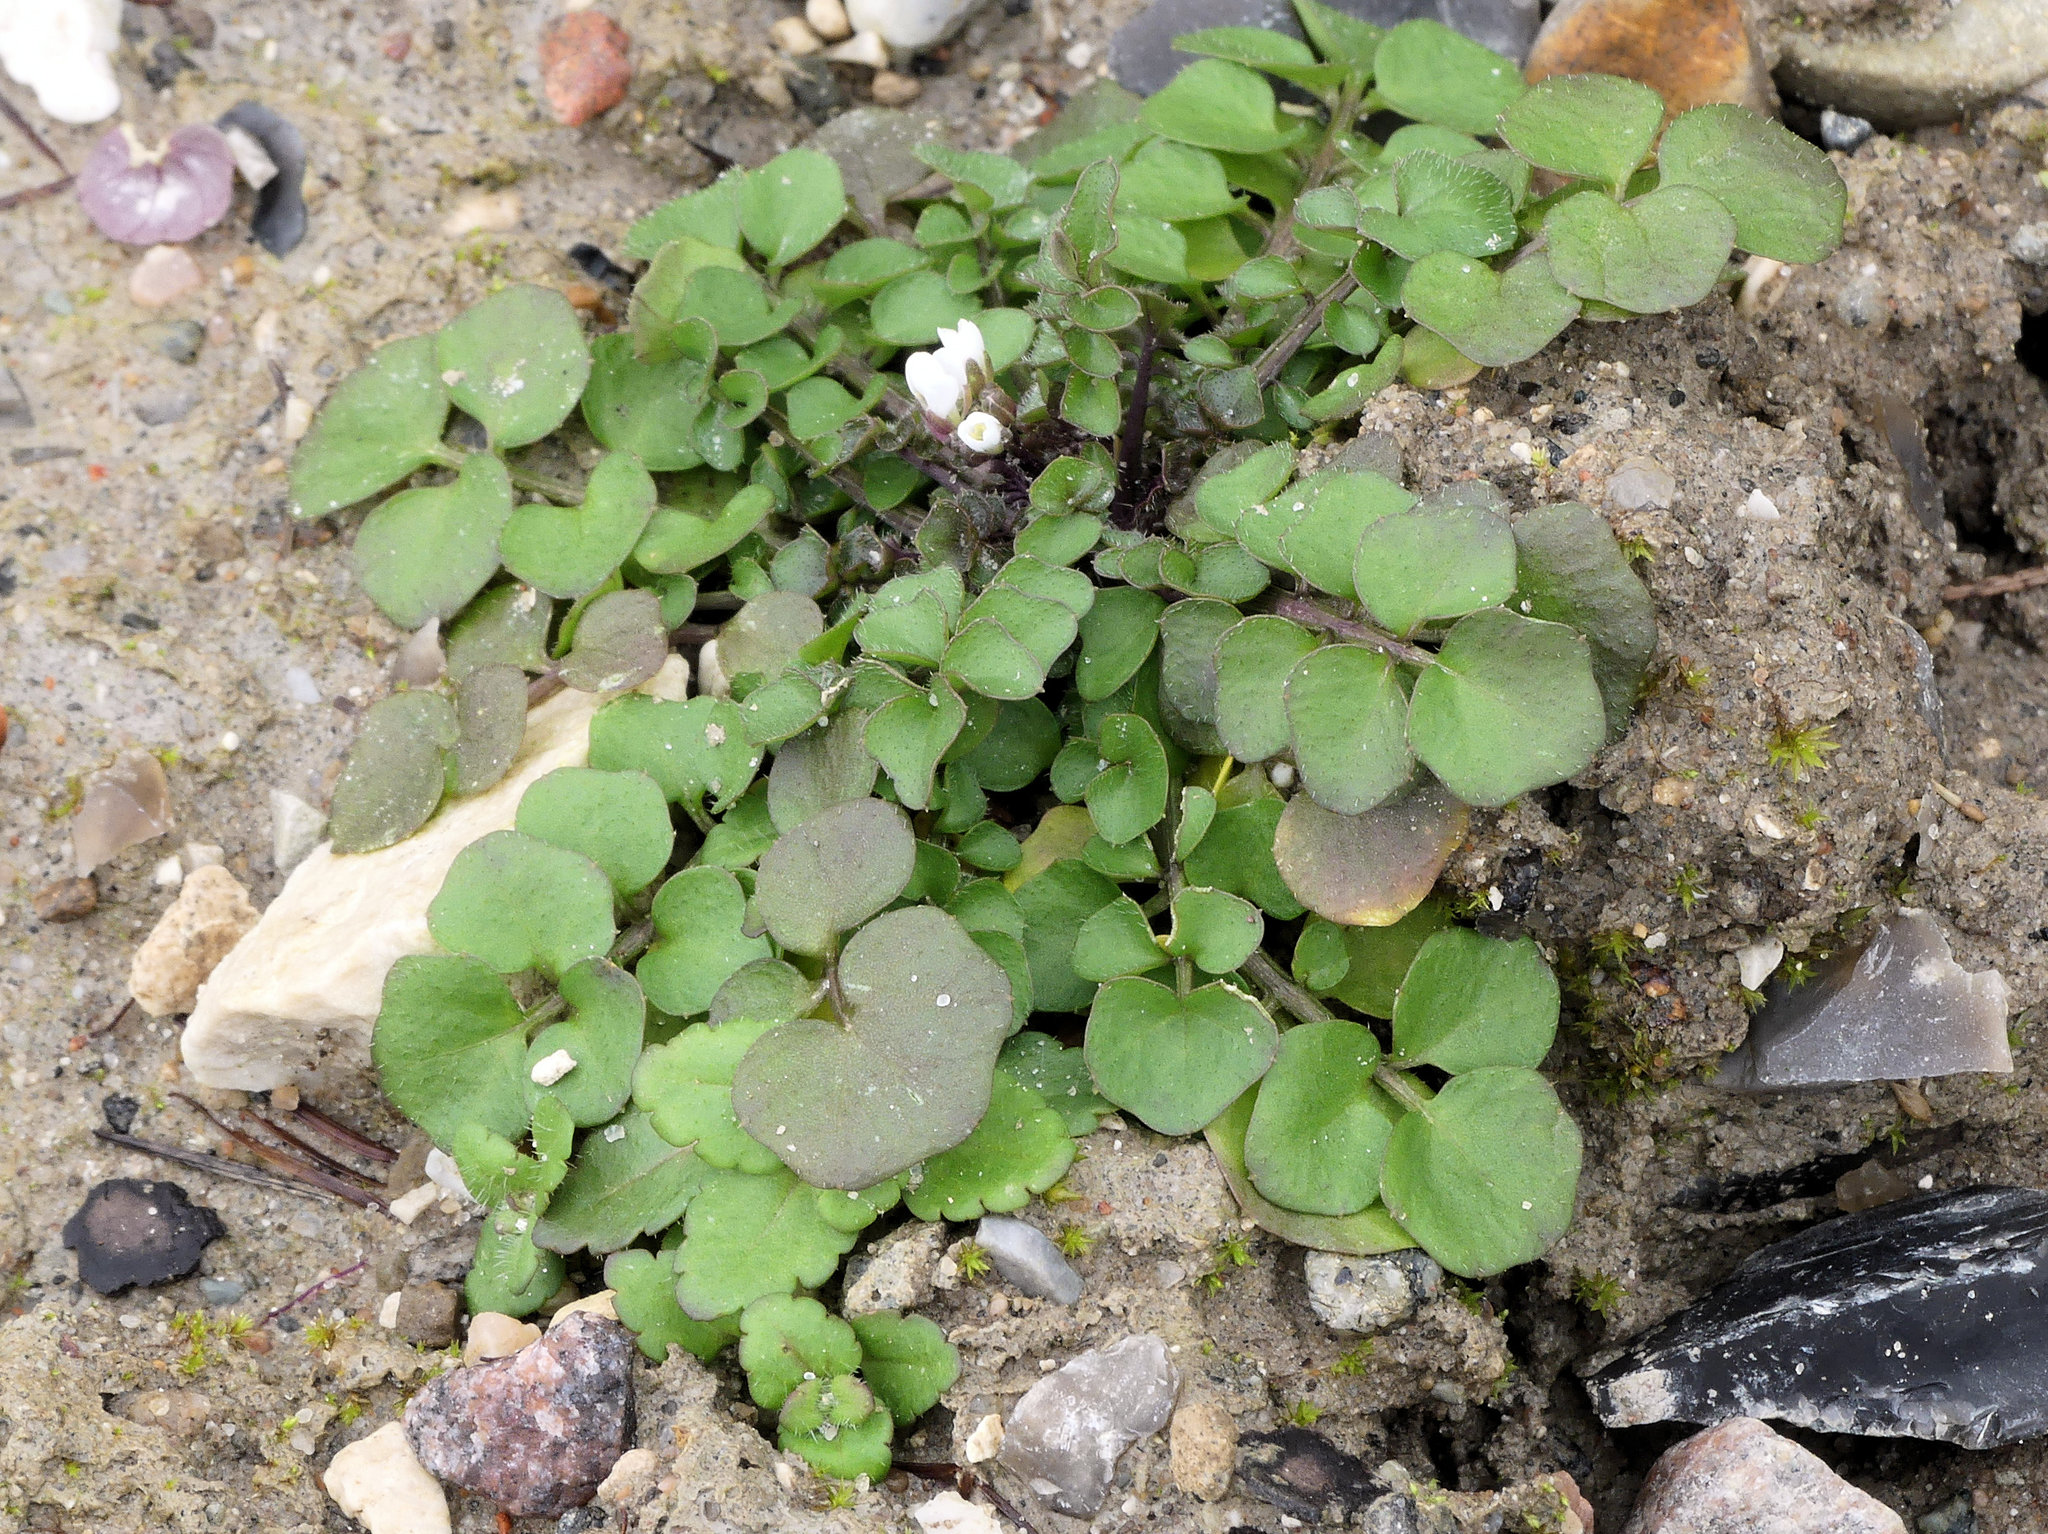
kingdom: Plantae
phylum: Tracheophyta
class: Magnoliopsida
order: Brassicales
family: Brassicaceae
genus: Cardamine
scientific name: Cardamine hirsuta
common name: Hairy bittercress
